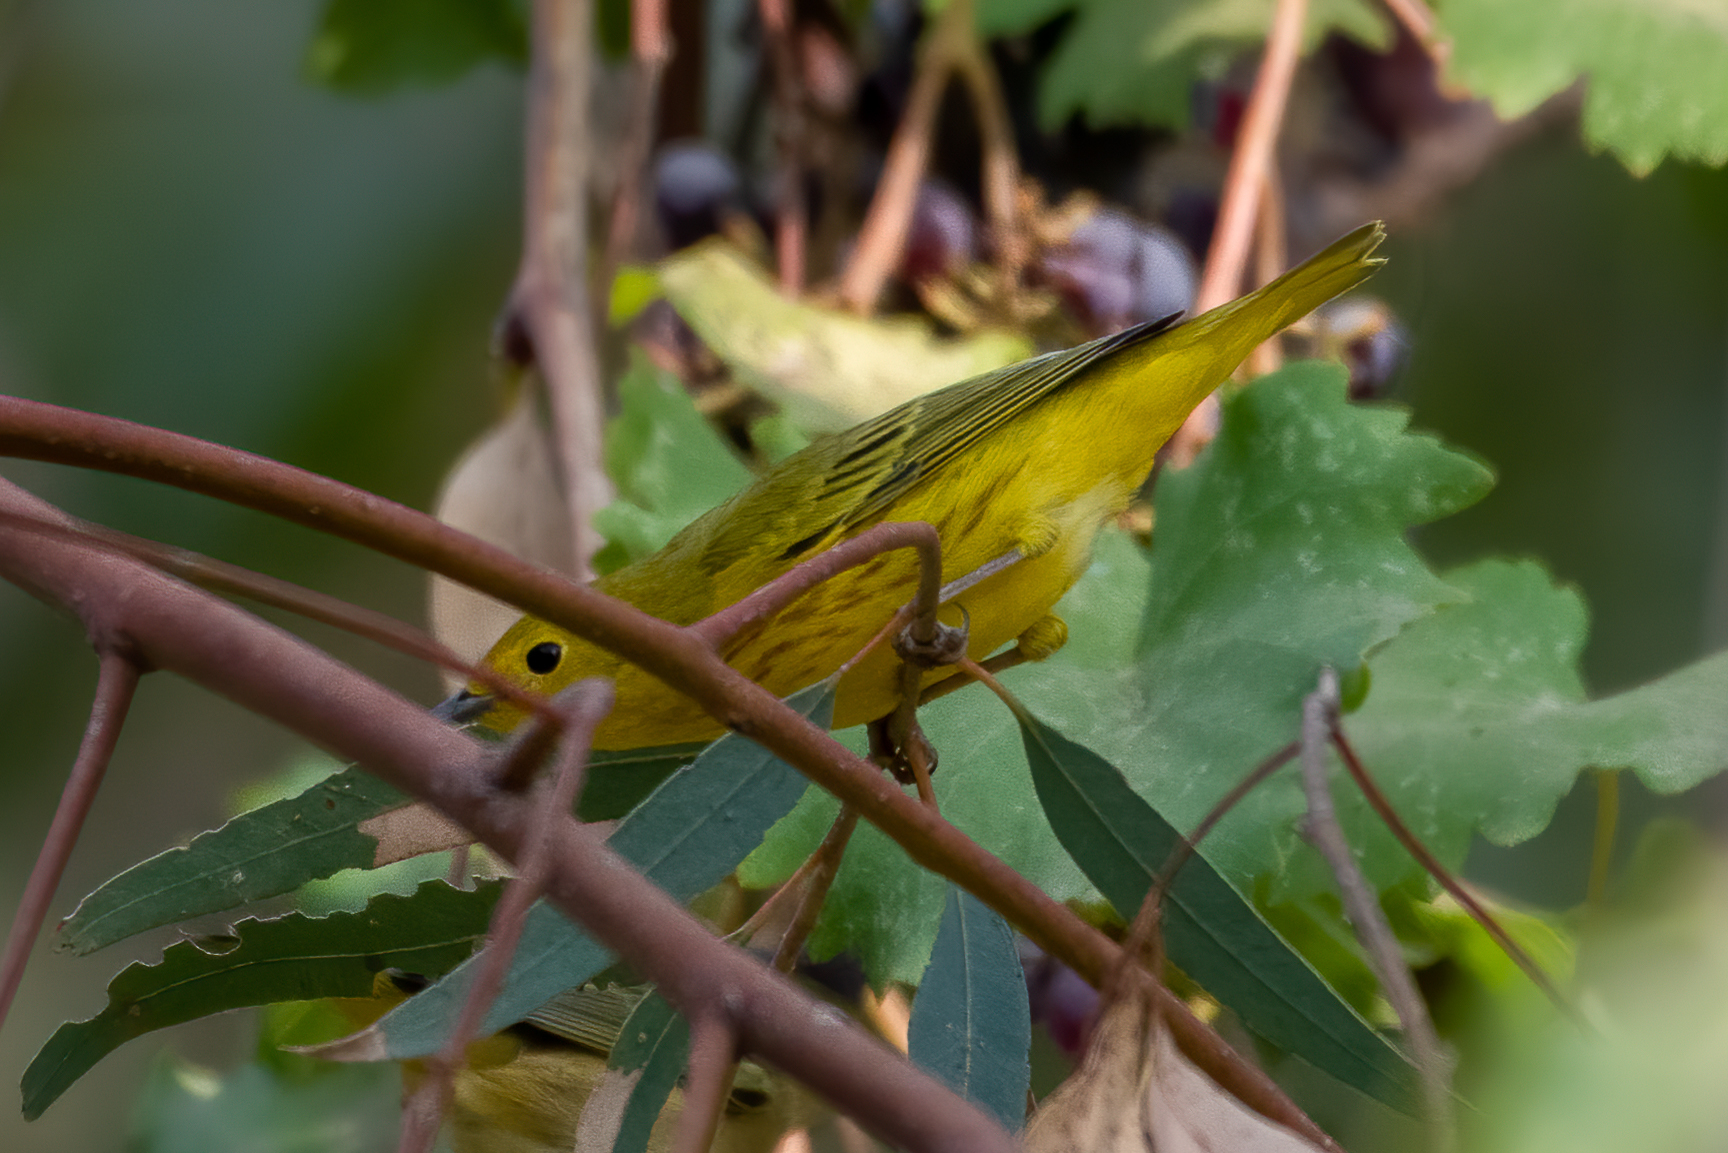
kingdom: Animalia
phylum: Chordata
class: Aves
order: Passeriformes
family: Parulidae
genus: Setophaga
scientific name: Setophaga petechia
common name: Yellow warbler
